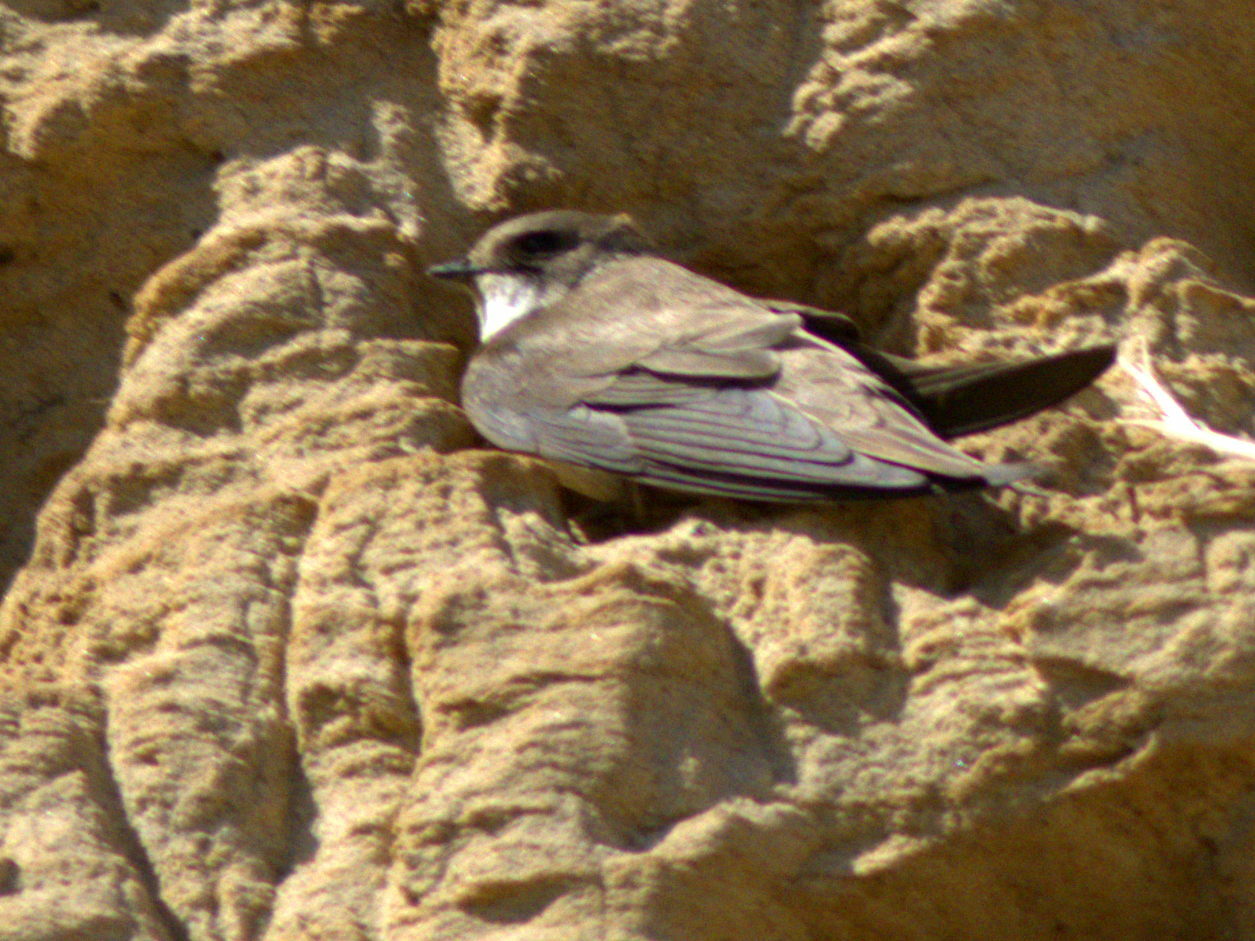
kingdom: Animalia
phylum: Chordata
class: Aves
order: Passeriformes
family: Hirundinidae
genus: Riparia
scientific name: Riparia riparia
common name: Sand martin
